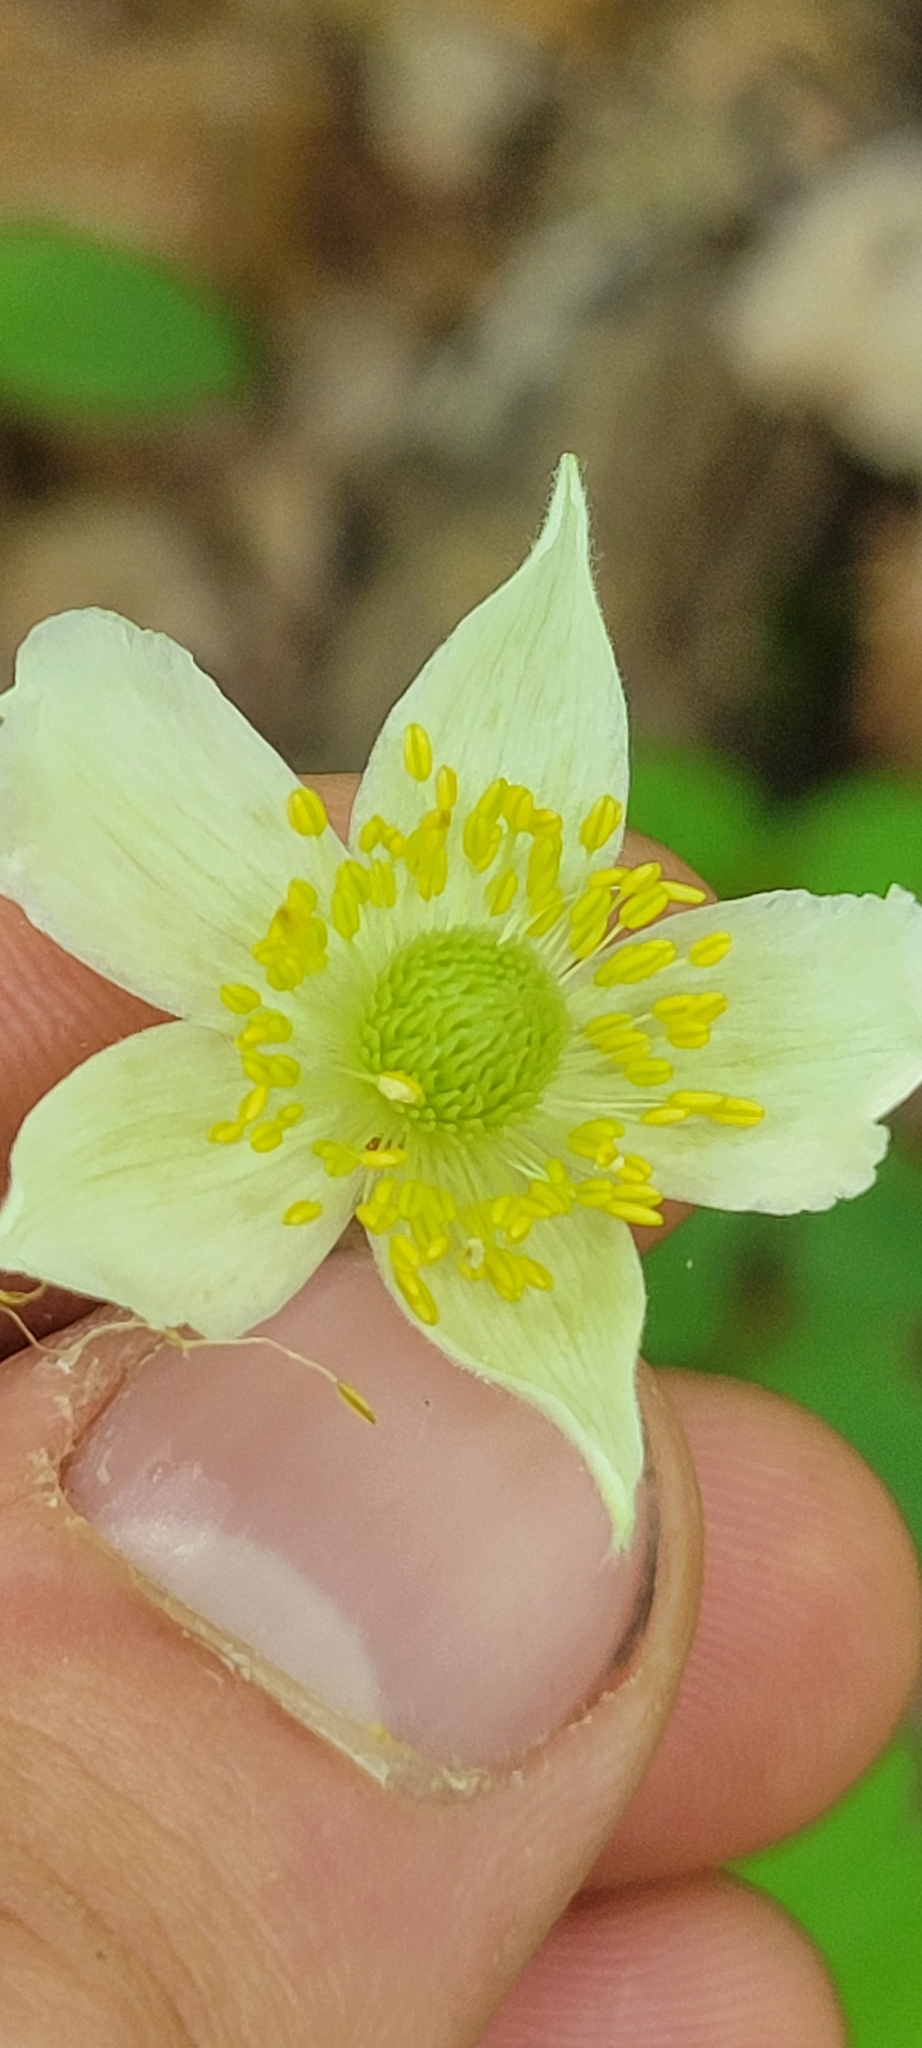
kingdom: Plantae
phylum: Tracheophyta
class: Magnoliopsida
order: Ranunculales
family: Ranunculaceae
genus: Anemone
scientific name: Anemone virginiana
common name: Tall anemone
